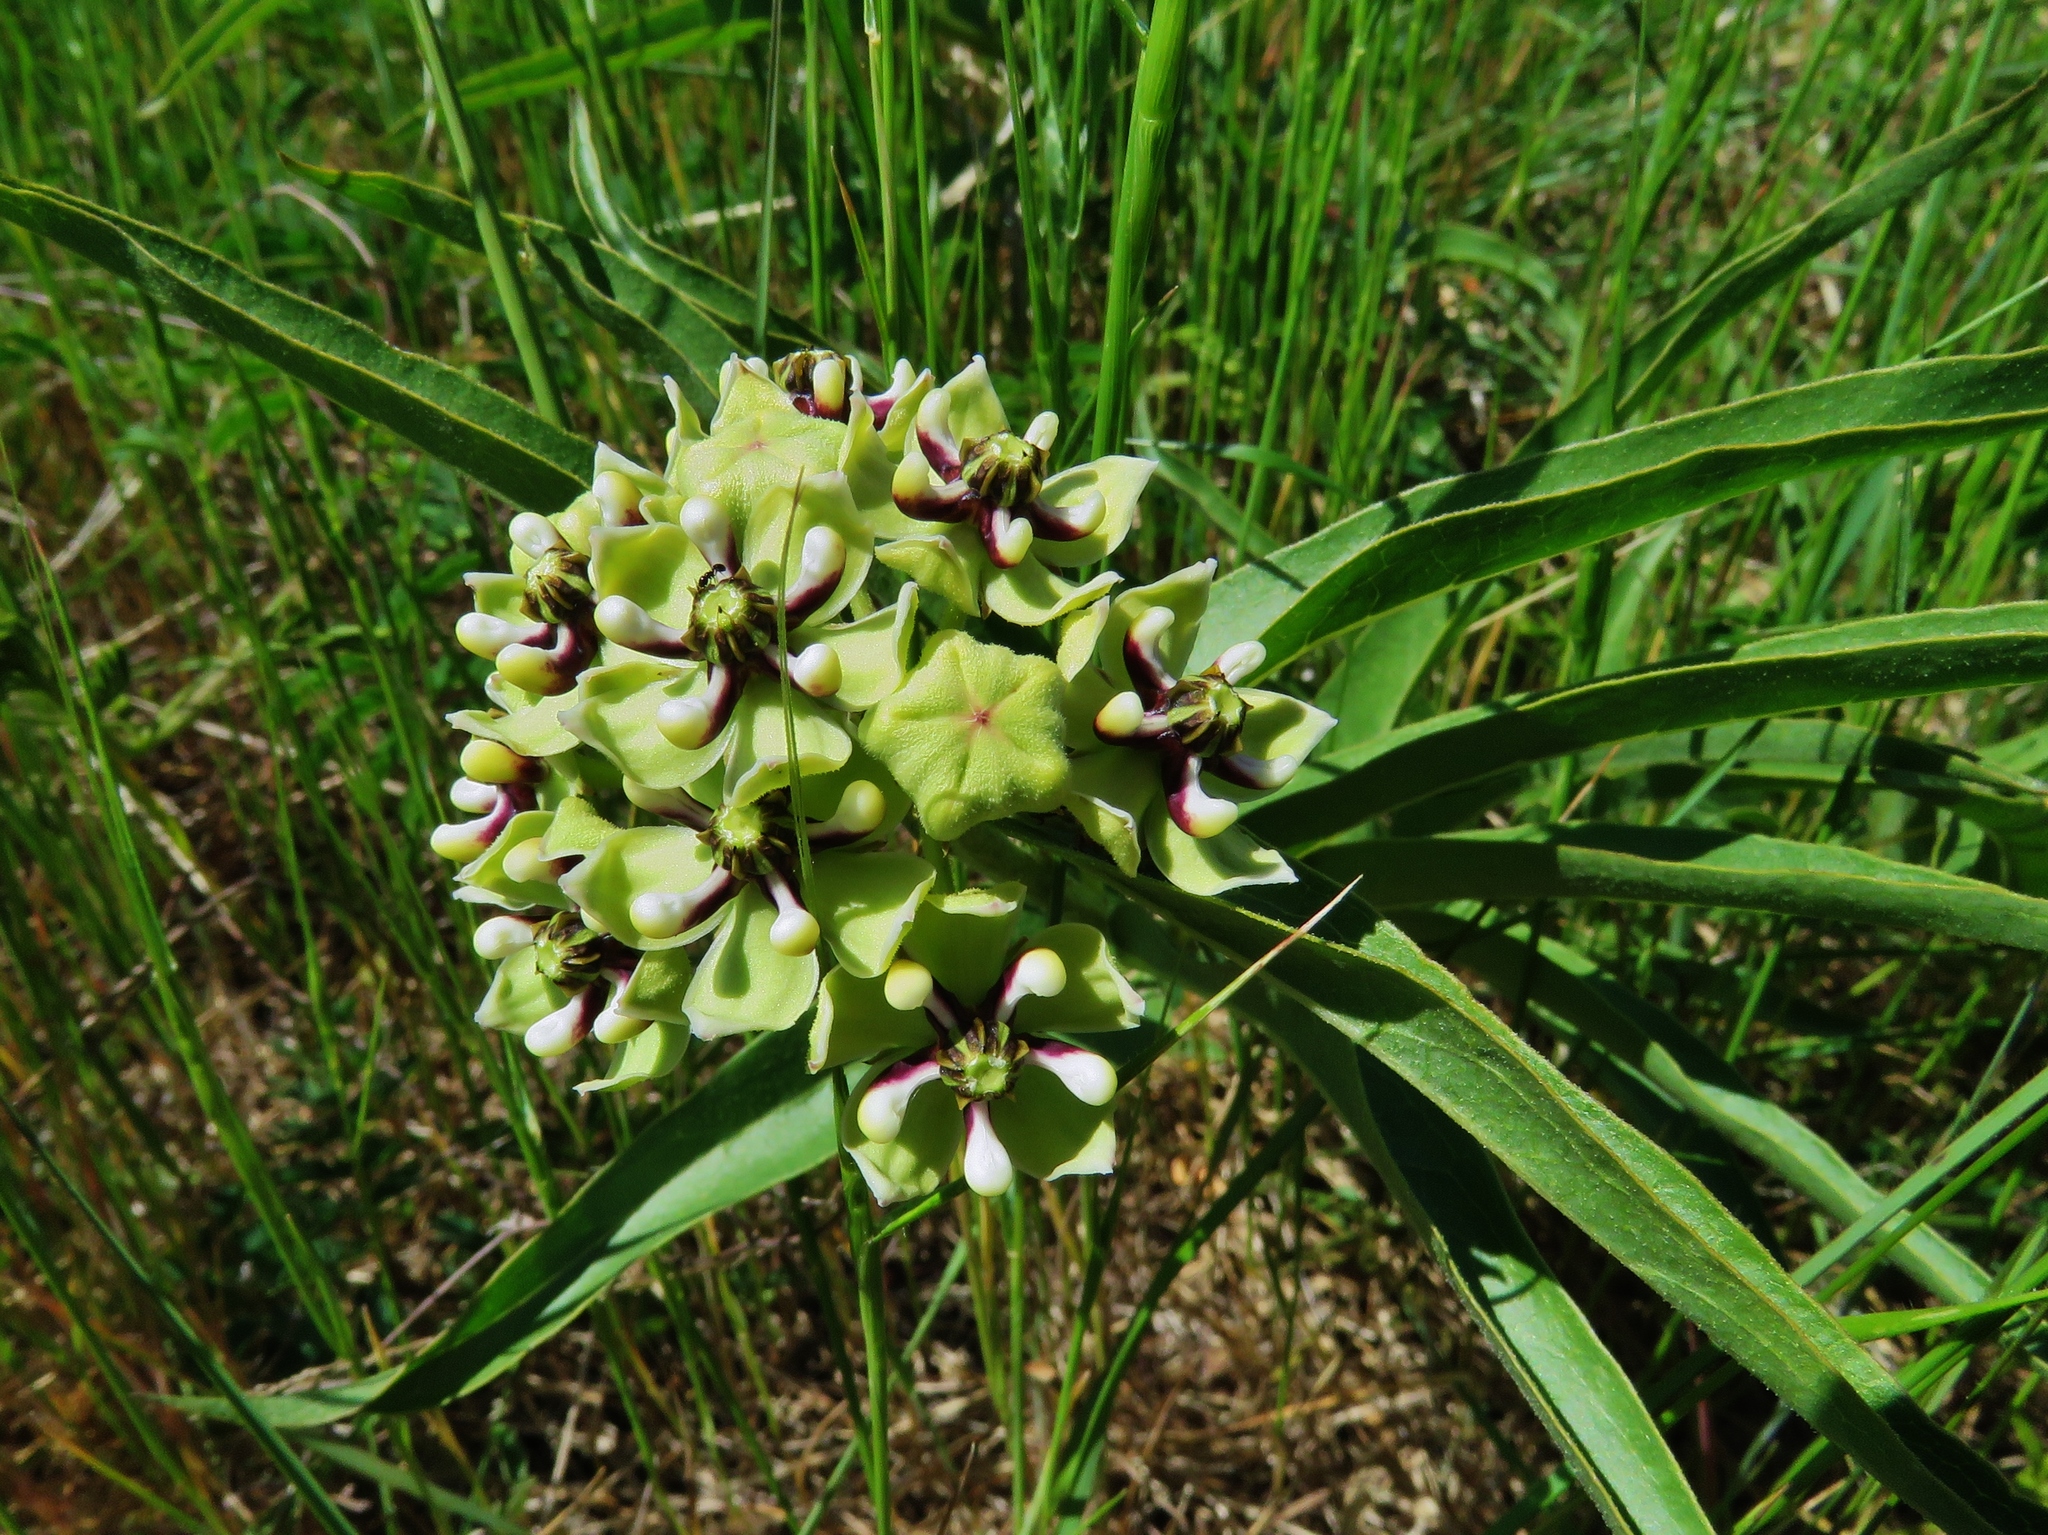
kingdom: Plantae
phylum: Tracheophyta
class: Magnoliopsida
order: Gentianales
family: Apocynaceae
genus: Asclepias
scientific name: Asclepias asperula
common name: Antelope horns
